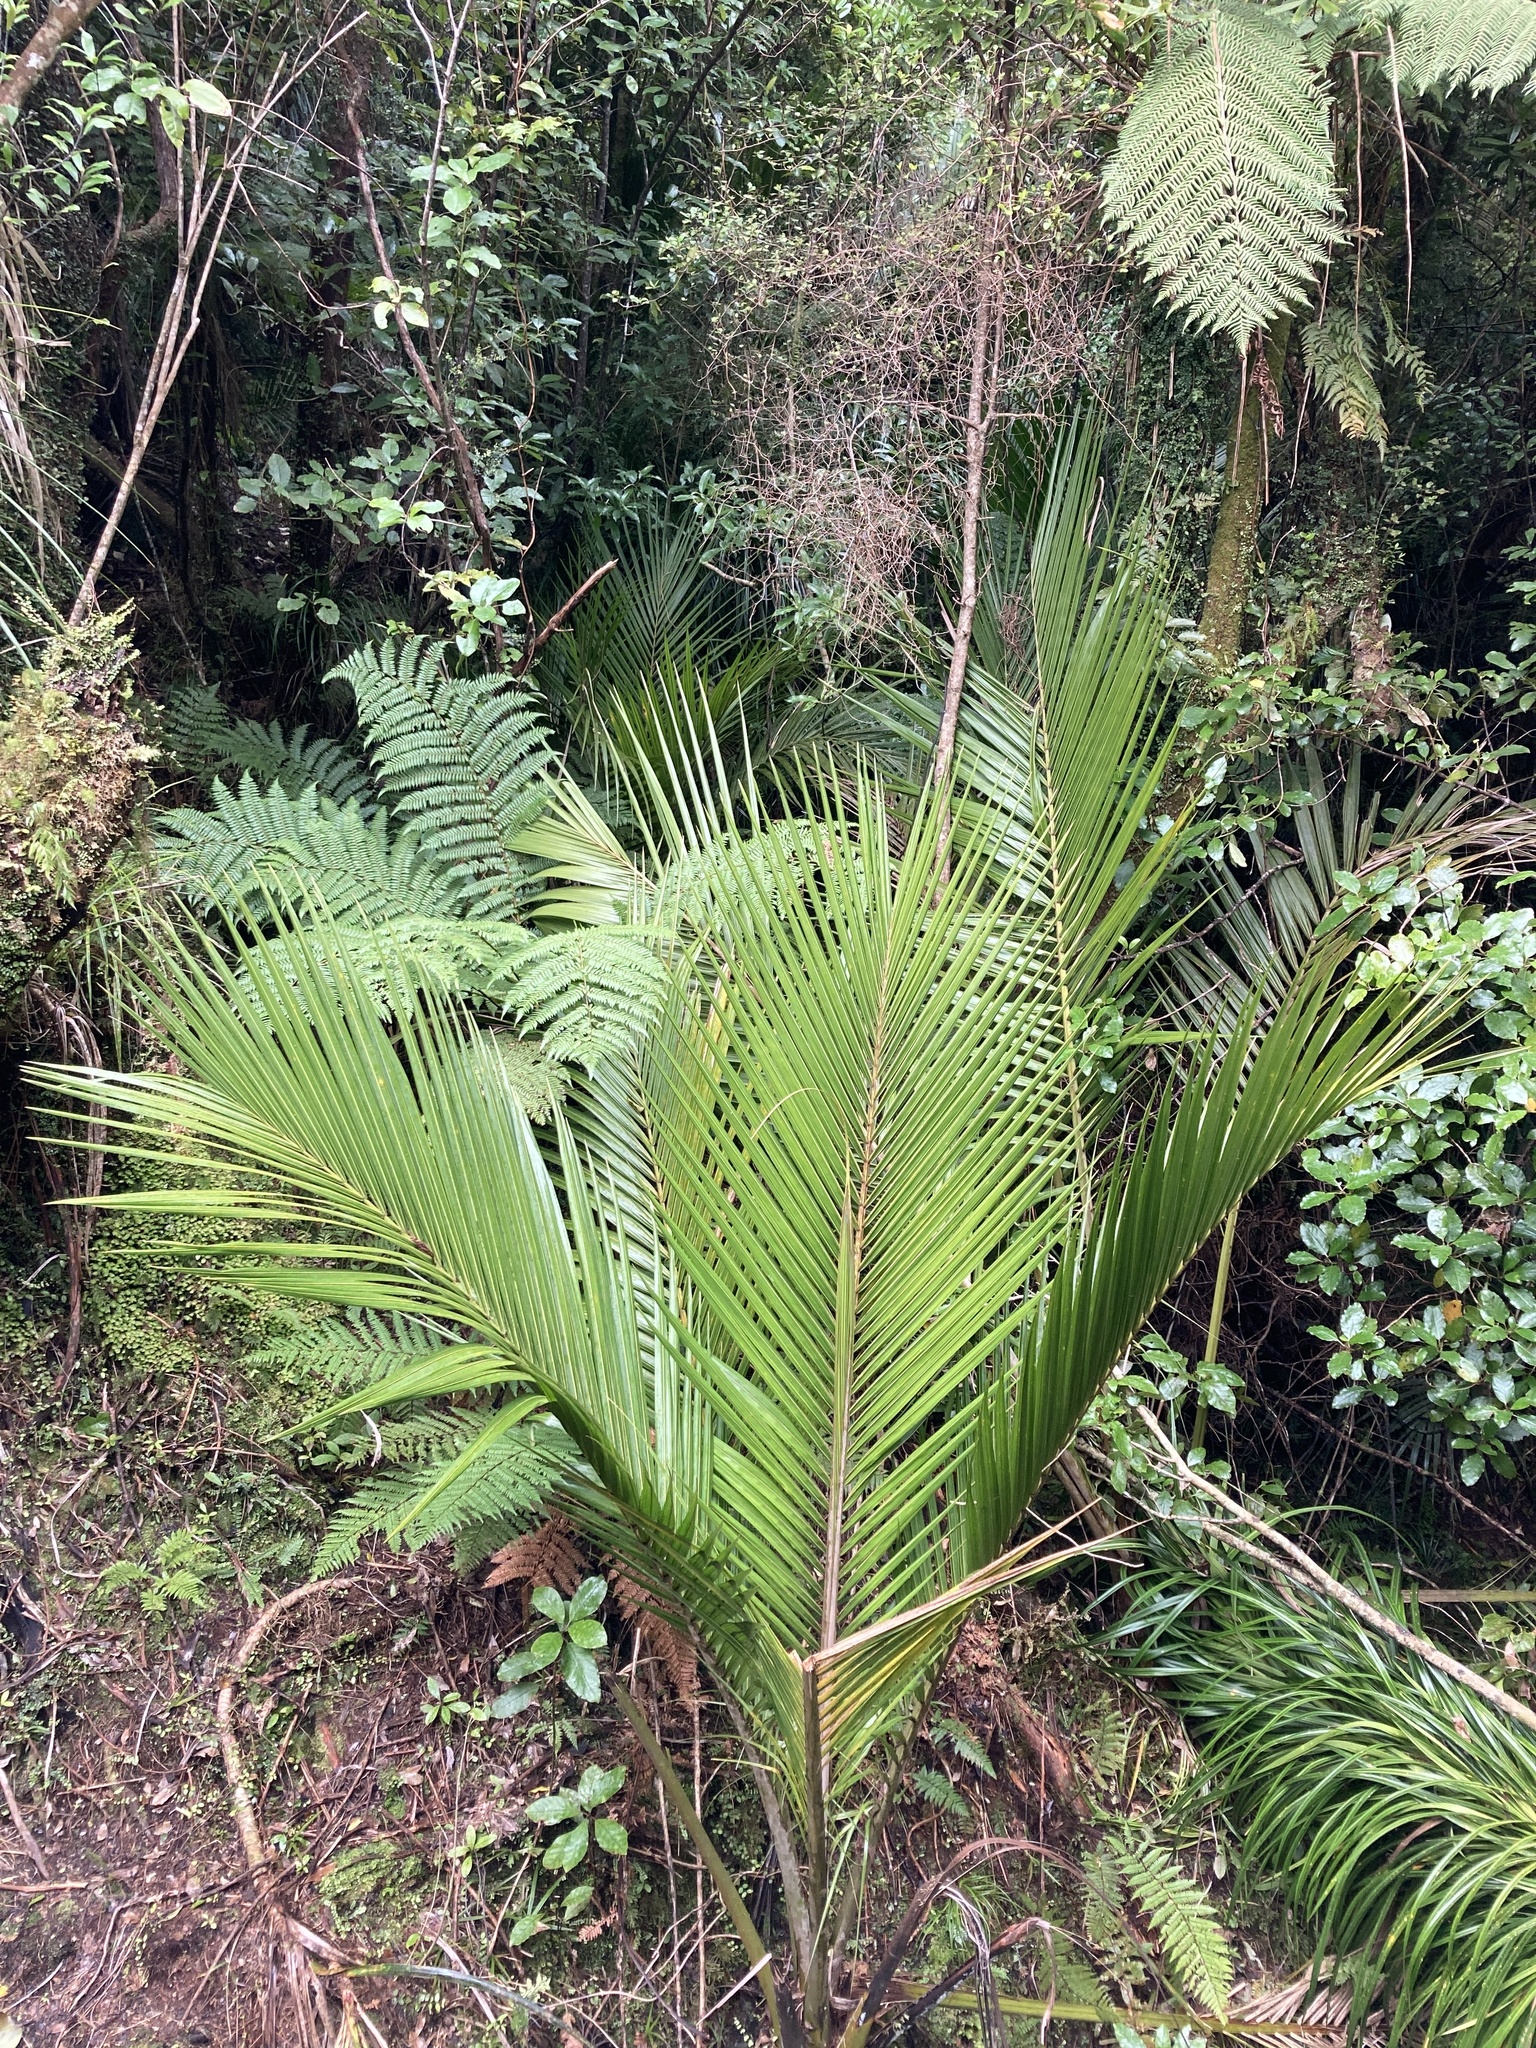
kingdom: Plantae
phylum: Tracheophyta
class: Liliopsida
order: Arecales
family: Arecaceae
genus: Rhopalostylis
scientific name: Rhopalostylis sapida
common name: Feather-duster palm
